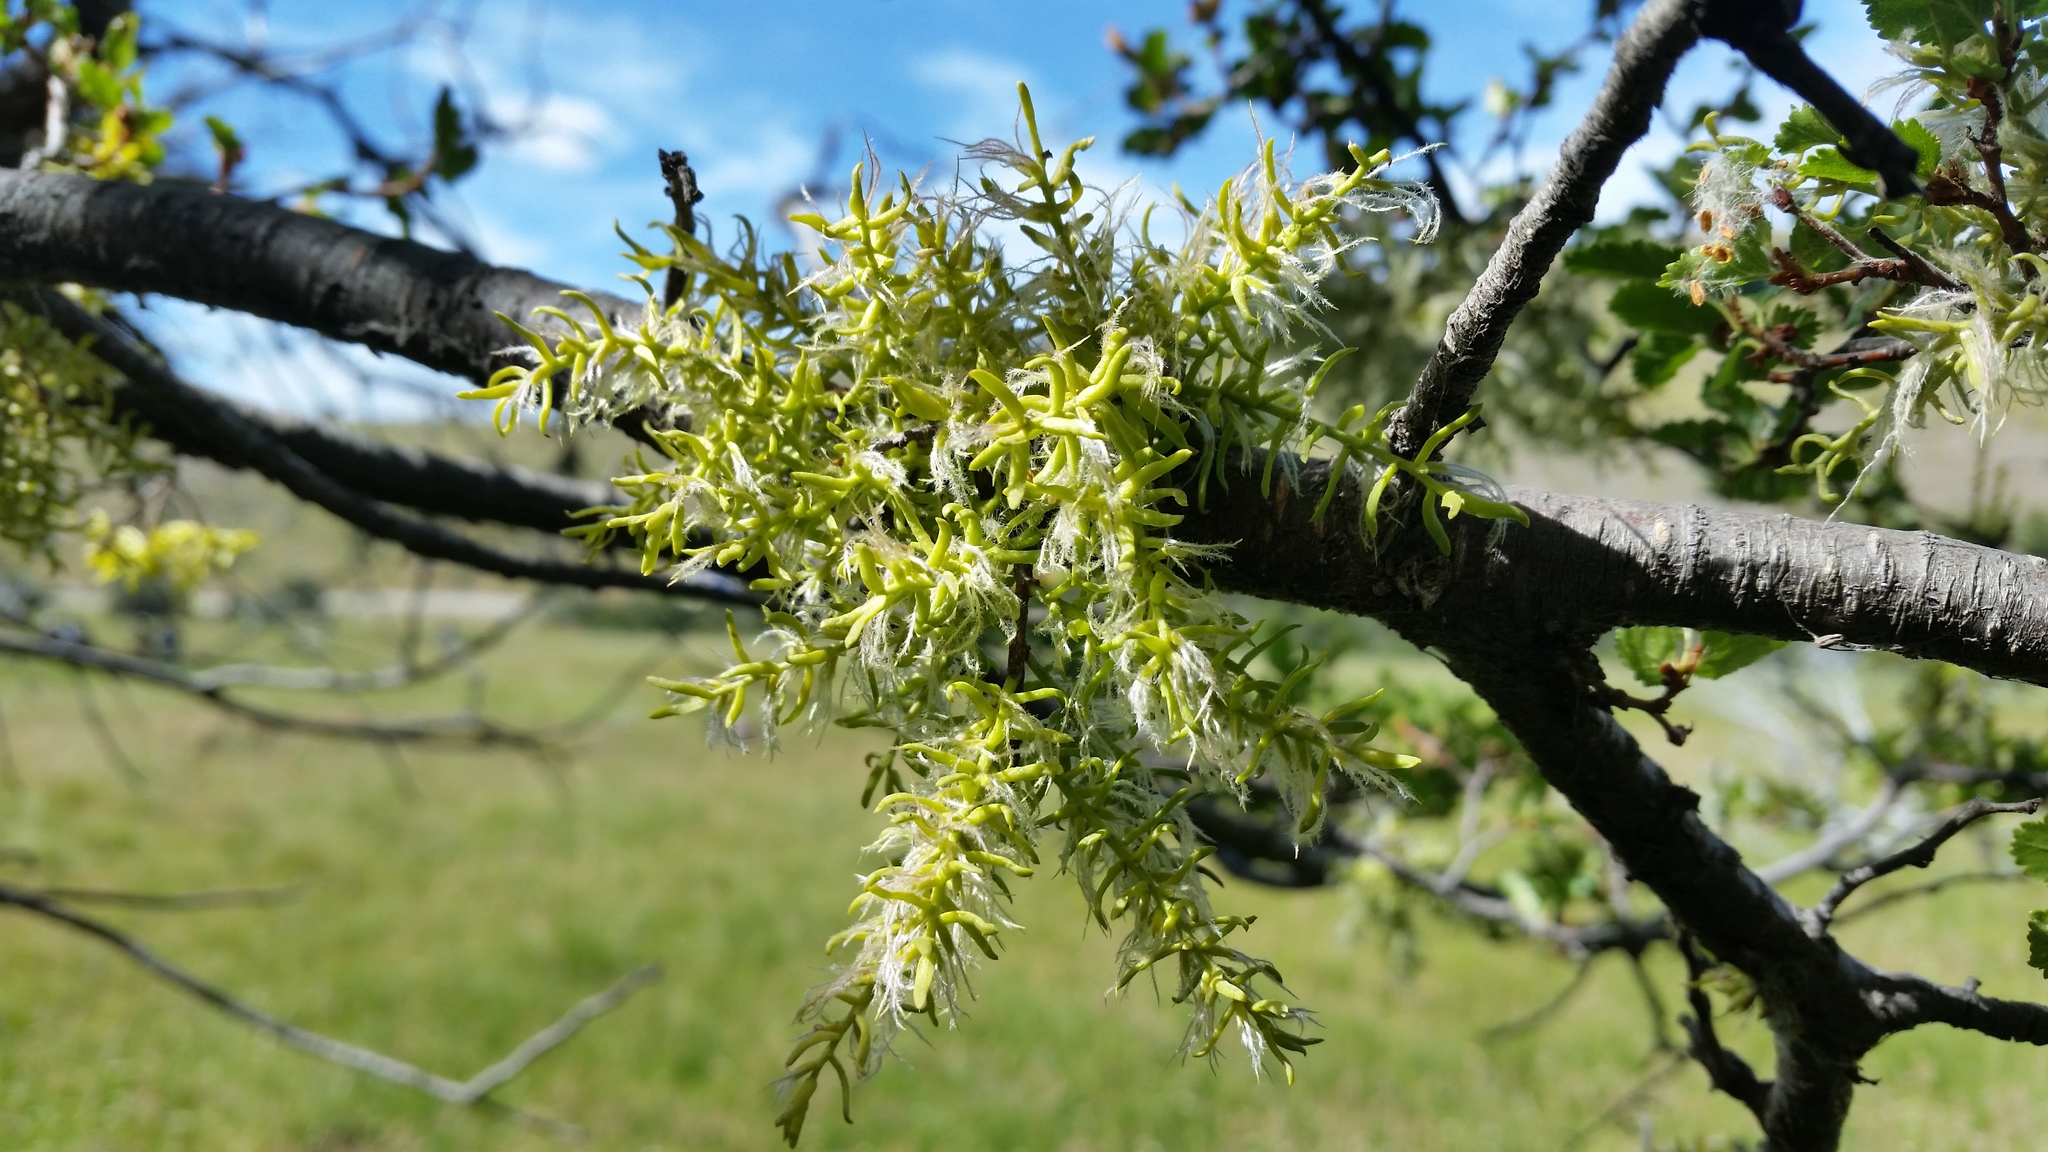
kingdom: Plantae
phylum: Tracheophyta
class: Magnoliopsida
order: Santalales
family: Misodendraceae
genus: Misodendrum
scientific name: Misodendrum linearifolium
